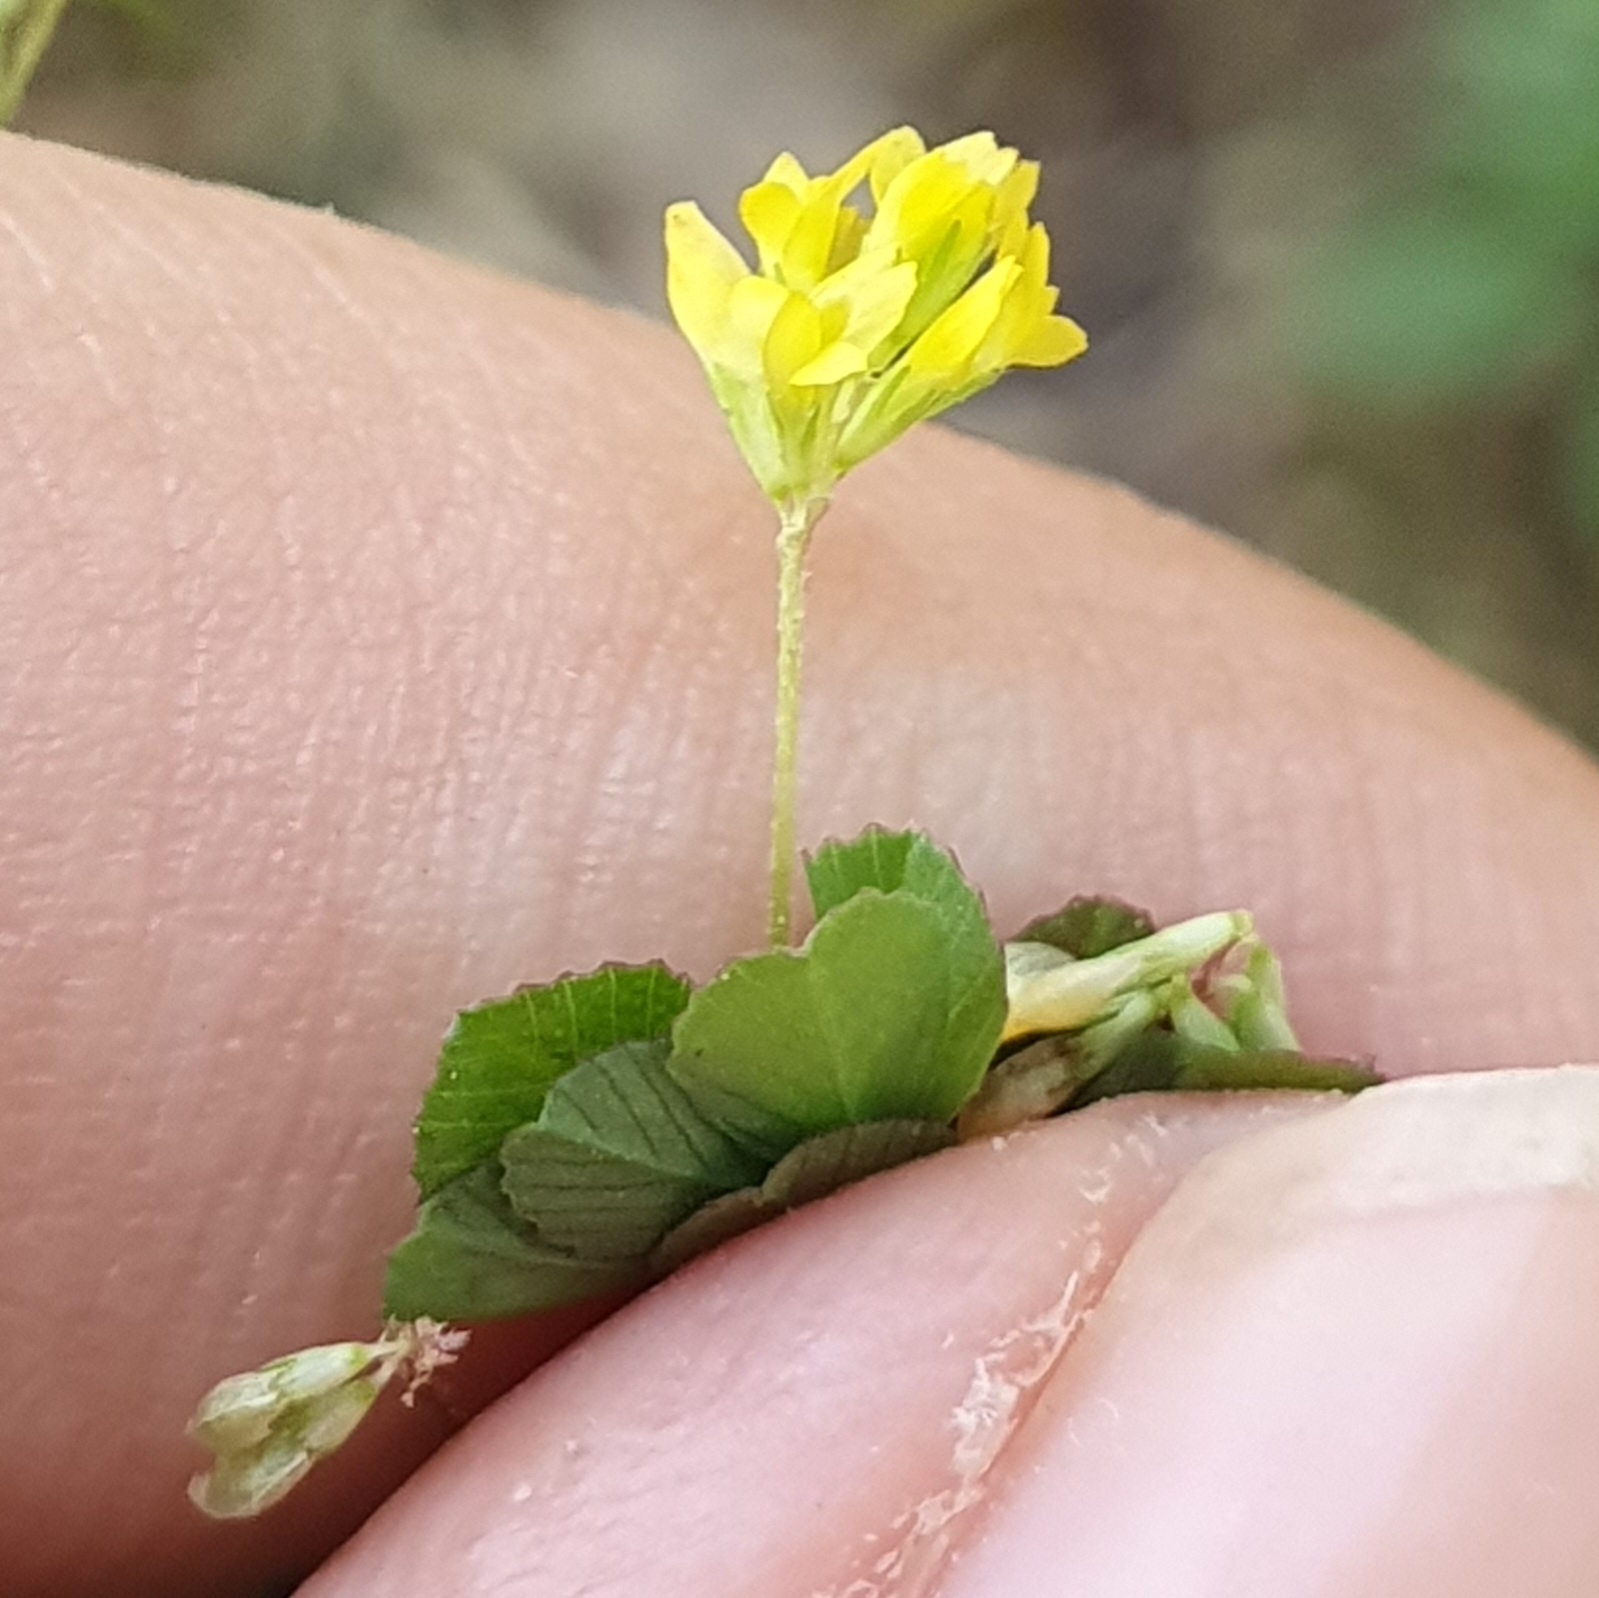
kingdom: Plantae
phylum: Tracheophyta
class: Magnoliopsida
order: Fabales
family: Fabaceae
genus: Trifolium
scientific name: Trifolium micranthum
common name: Slender trefoil
